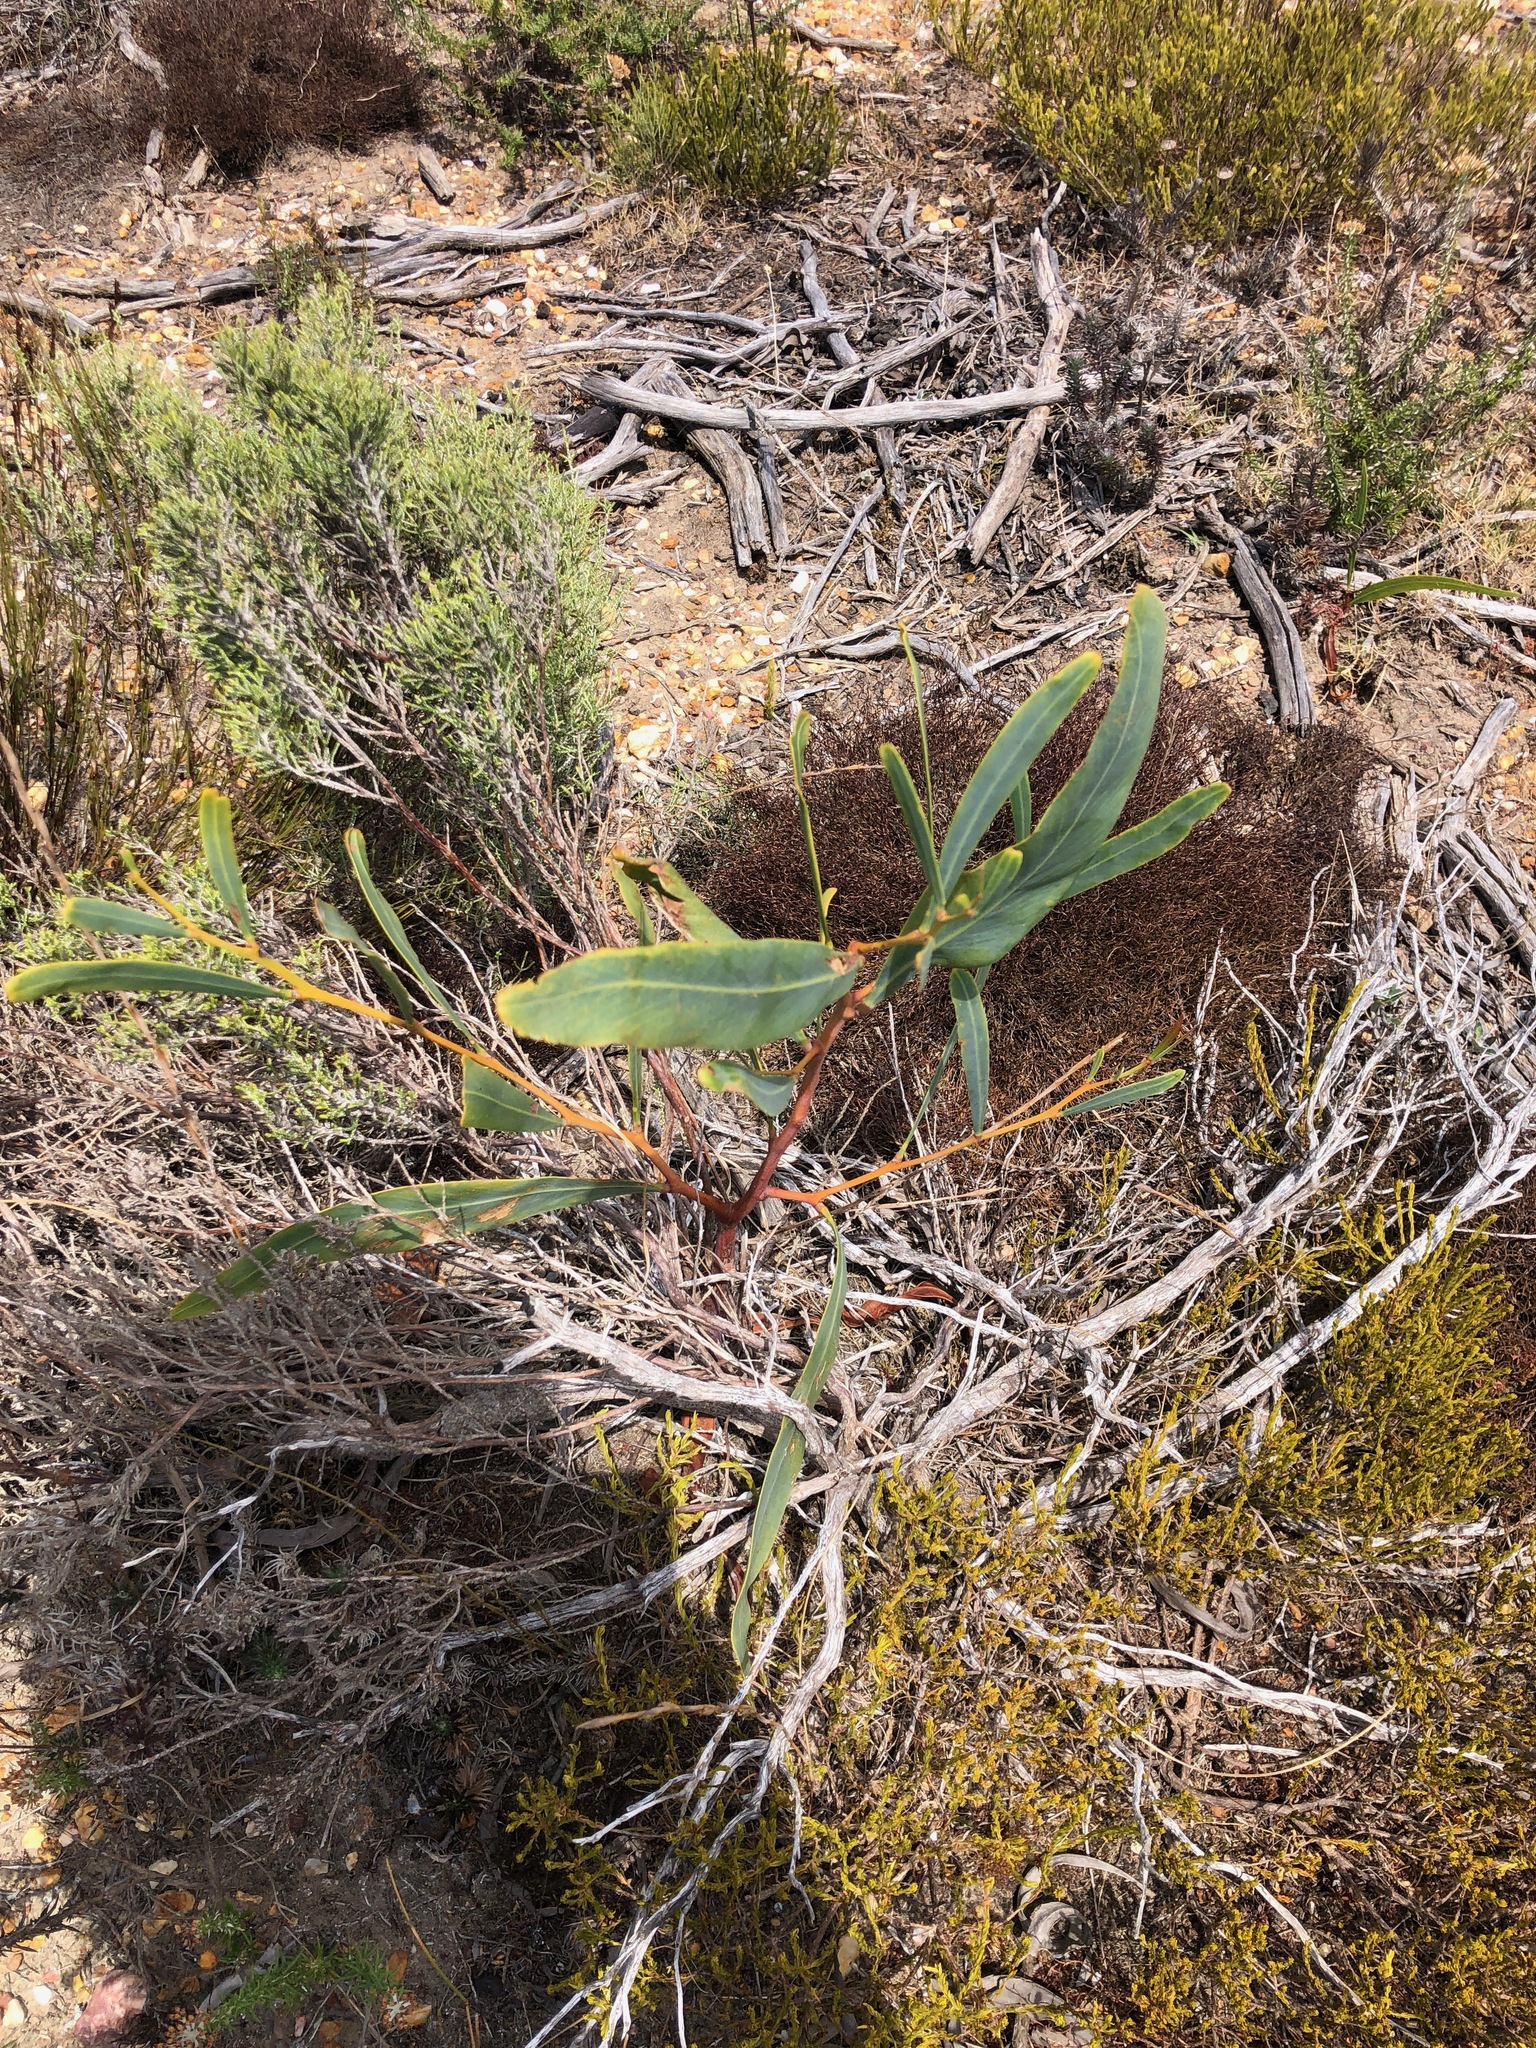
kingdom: Plantae
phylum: Tracheophyta
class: Magnoliopsida
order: Fabales
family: Fabaceae
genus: Acacia
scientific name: Acacia saligna
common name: Orange wattle
